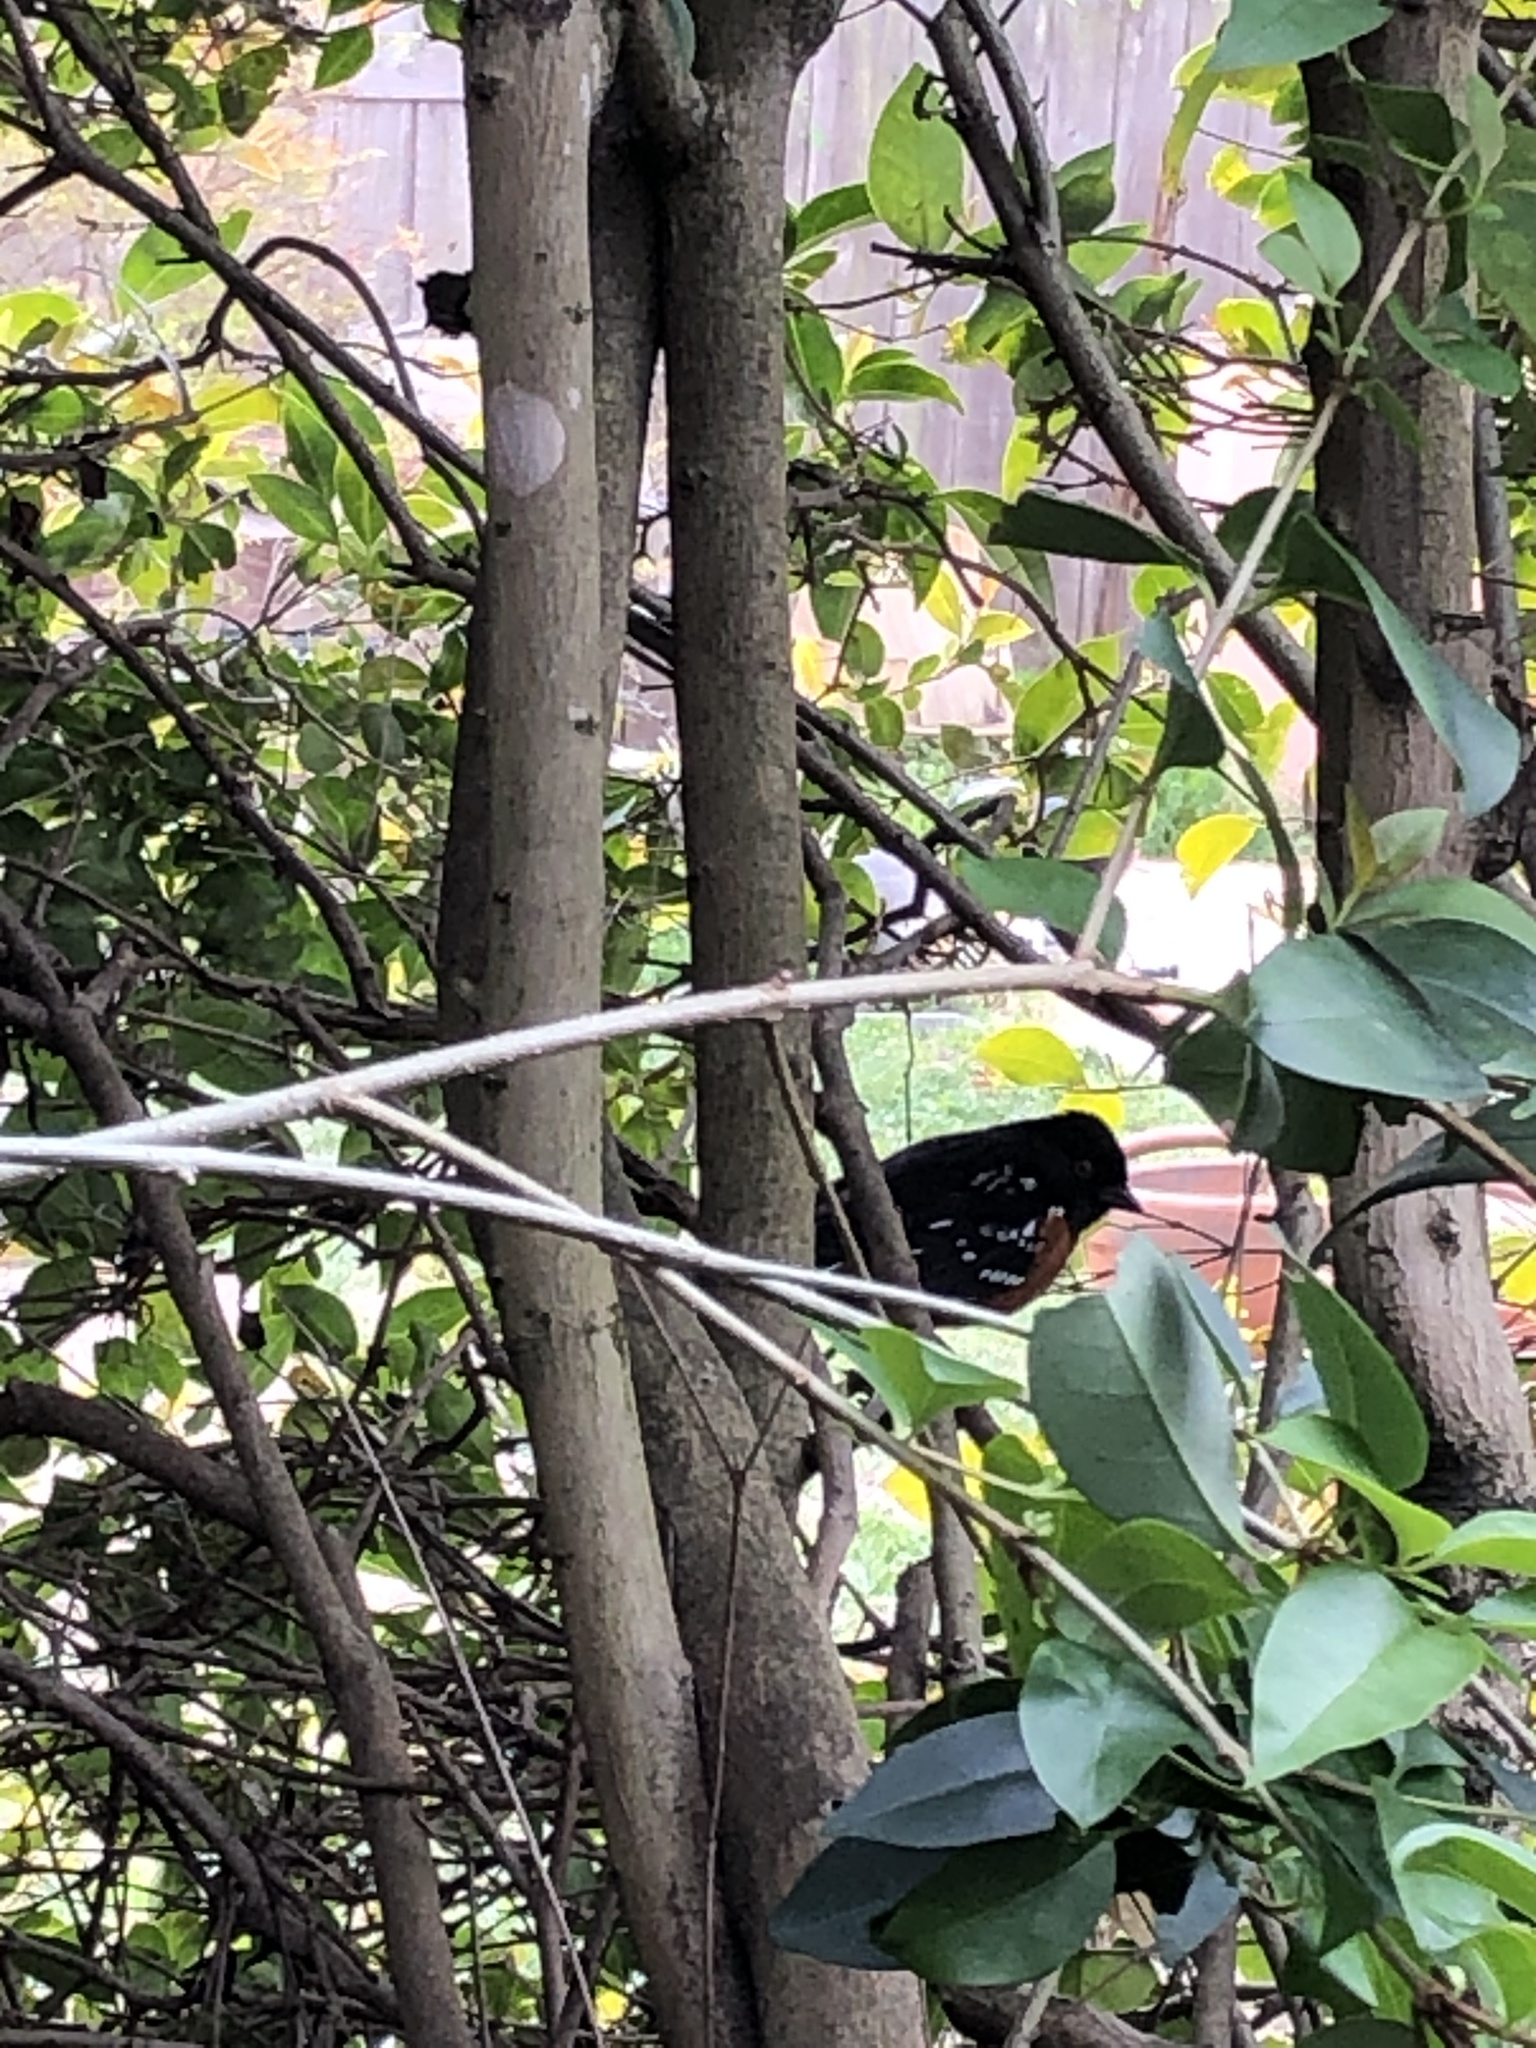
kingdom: Animalia
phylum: Chordata
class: Aves
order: Passeriformes
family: Passerellidae
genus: Pipilo
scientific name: Pipilo maculatus
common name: Spotted towhee
